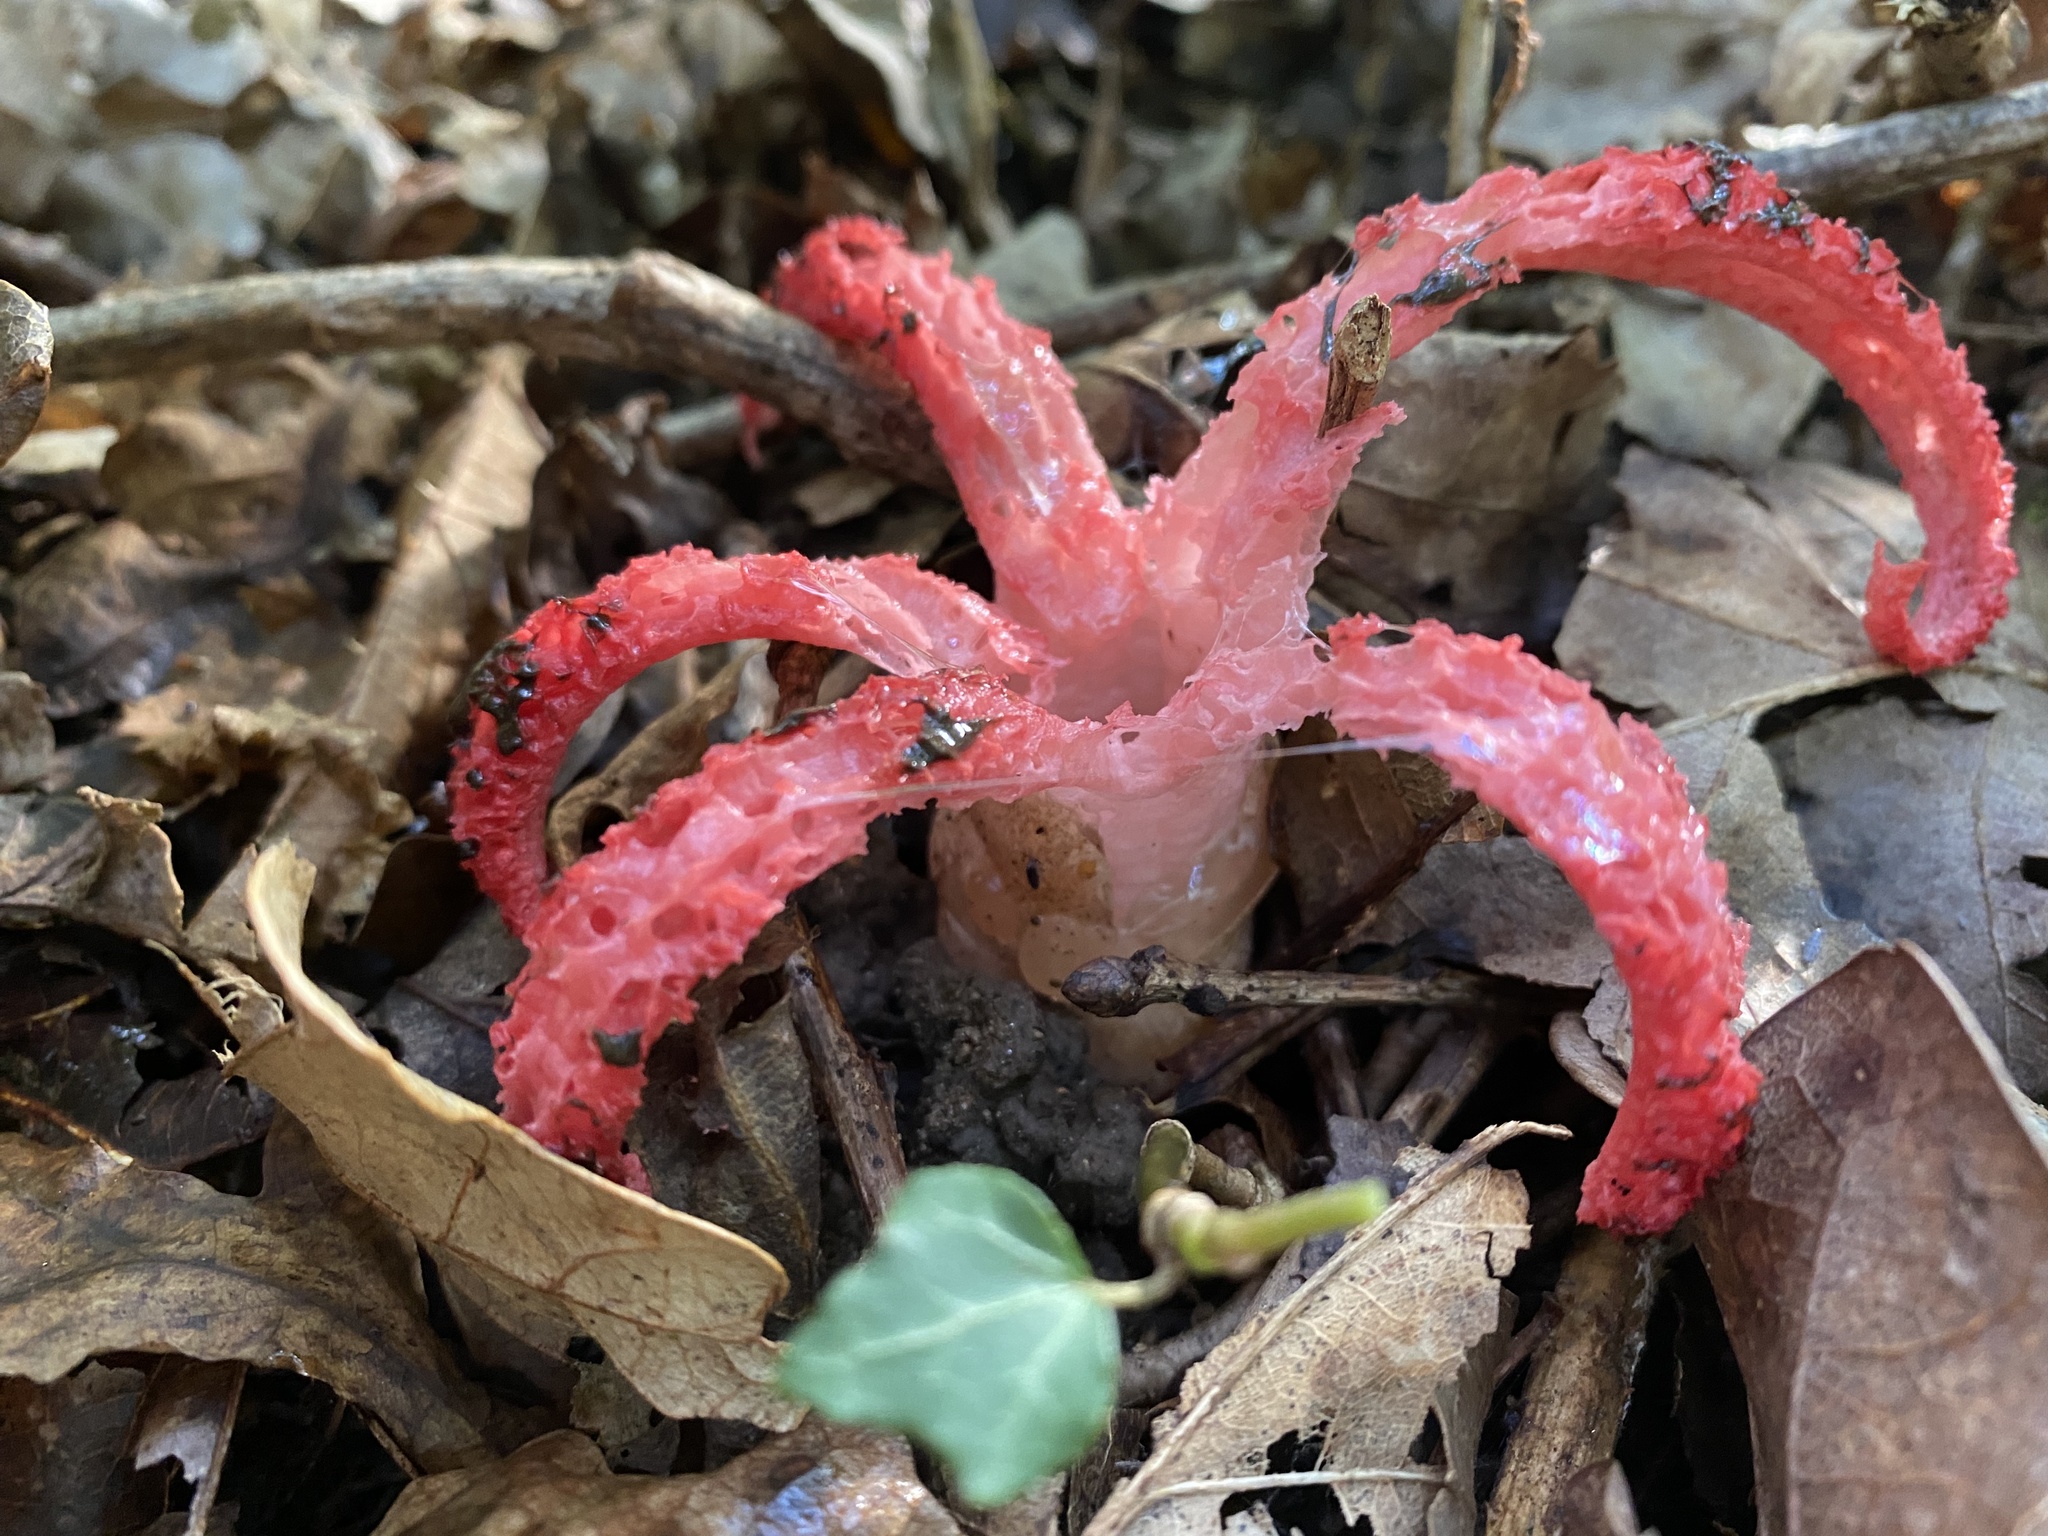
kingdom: Fungi
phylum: Basidiomycota
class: Agaricomycetes
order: Phallales
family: Phallaceae
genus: Clathrus
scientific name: Clathrus archeri
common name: Devil's fingers
